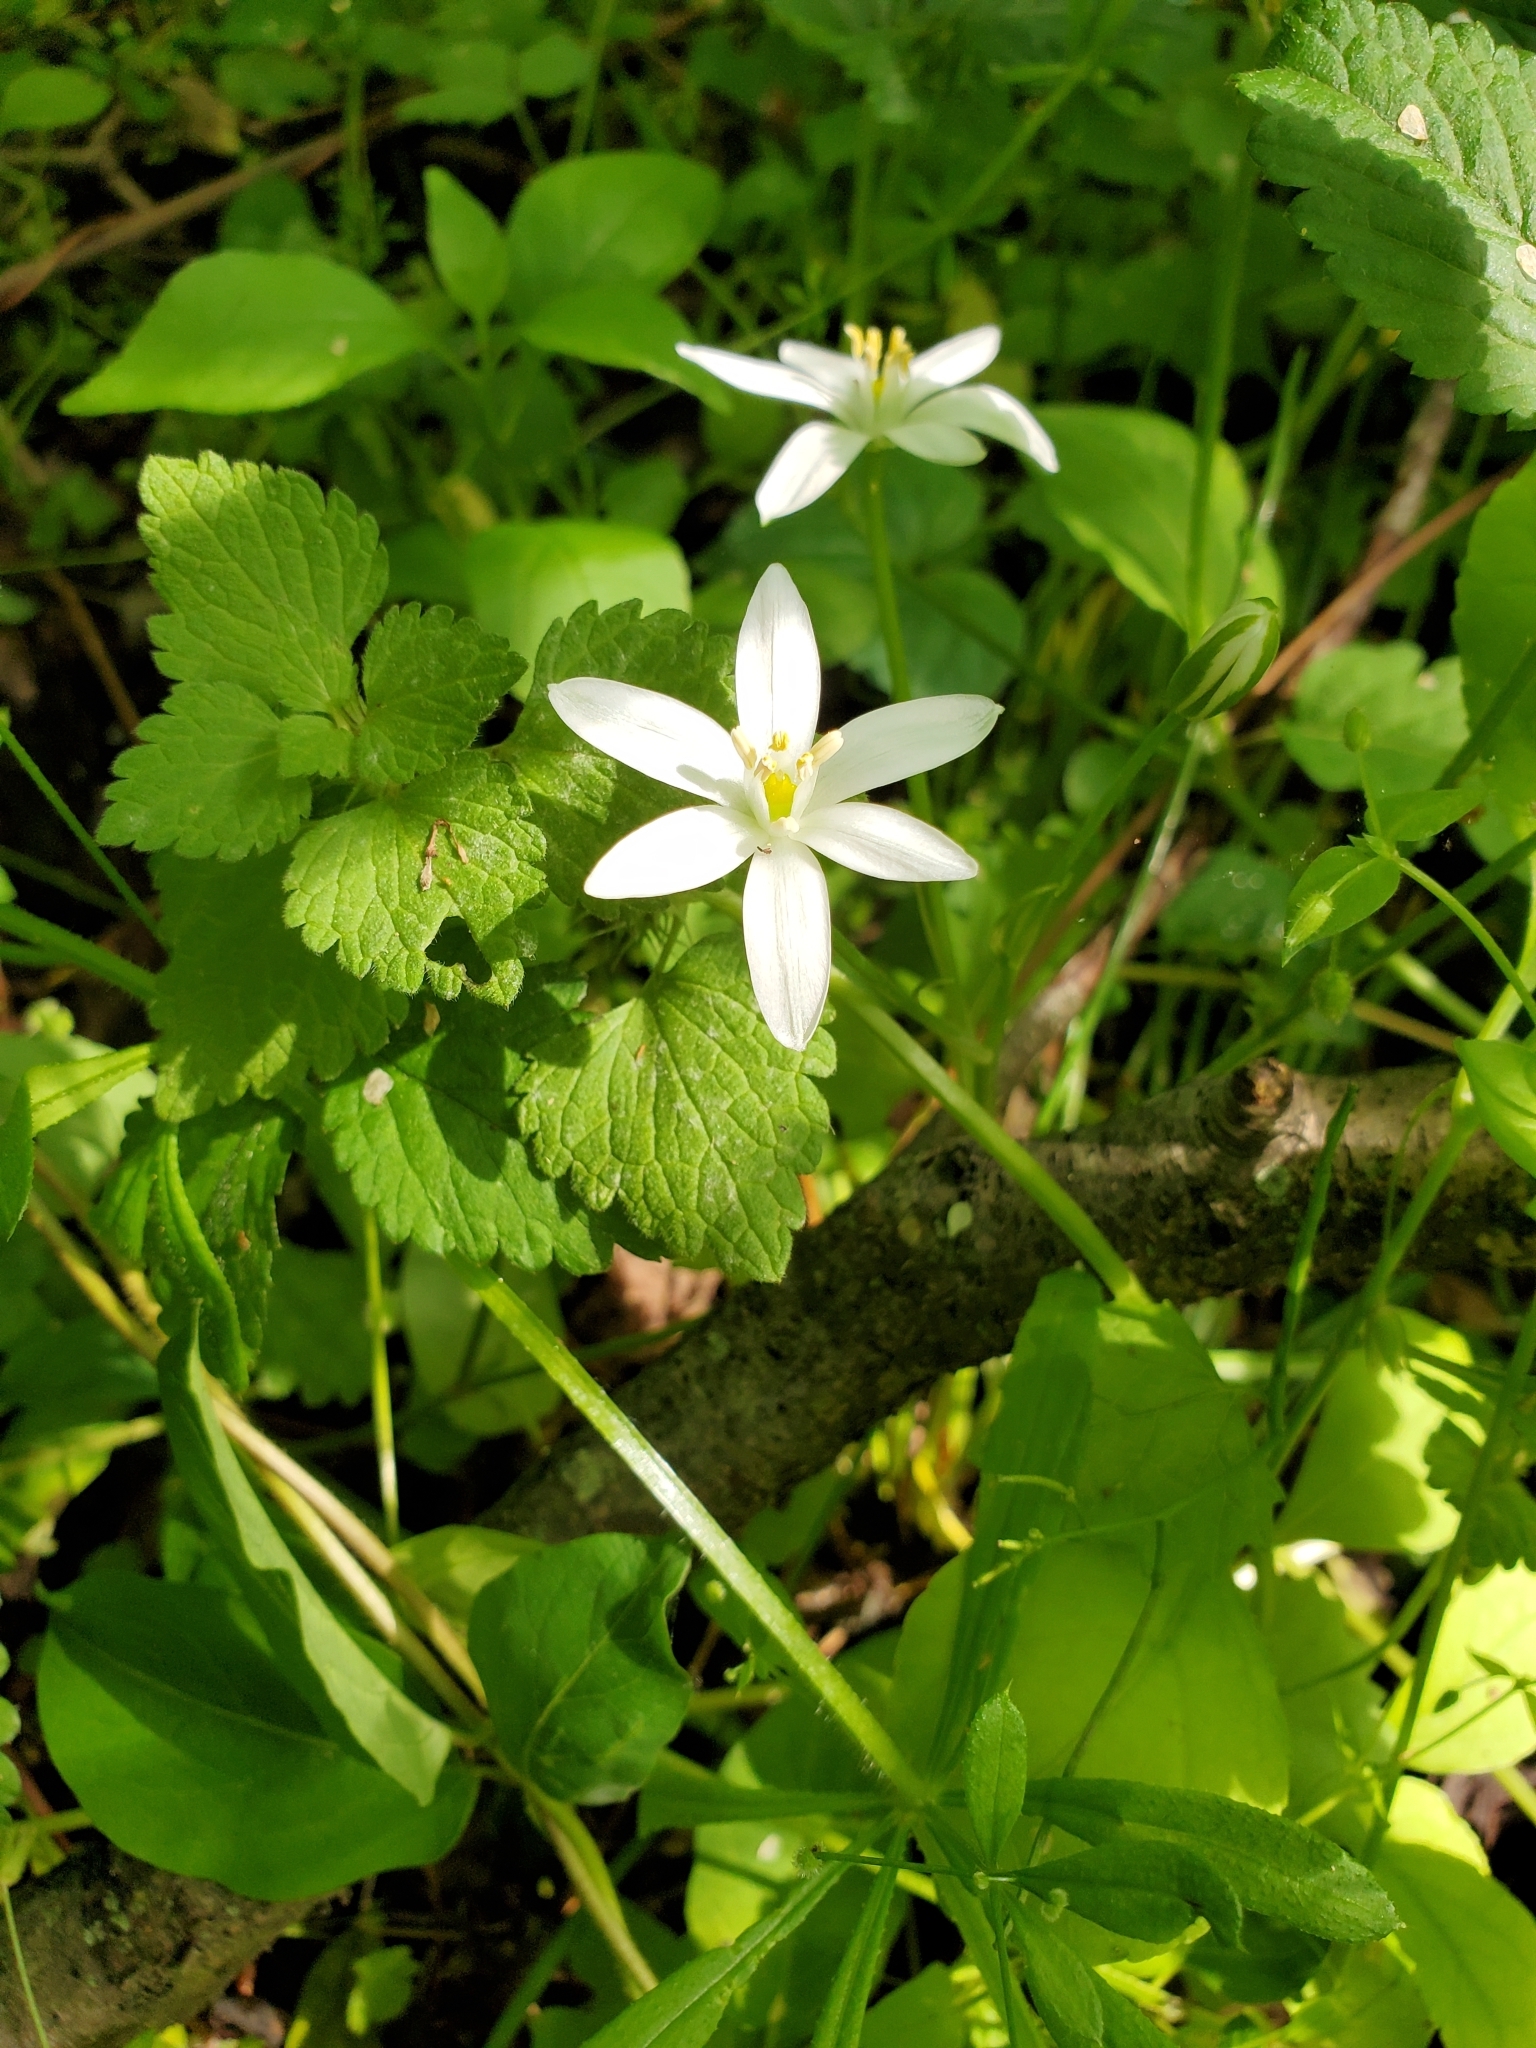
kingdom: Plantae
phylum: Tracheophyta
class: Liliopsida
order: Asparagales
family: Asparagaceae
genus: Ornithogalum
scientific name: Ornithogalum umbellatum
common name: Garden star-of-bethlehem
